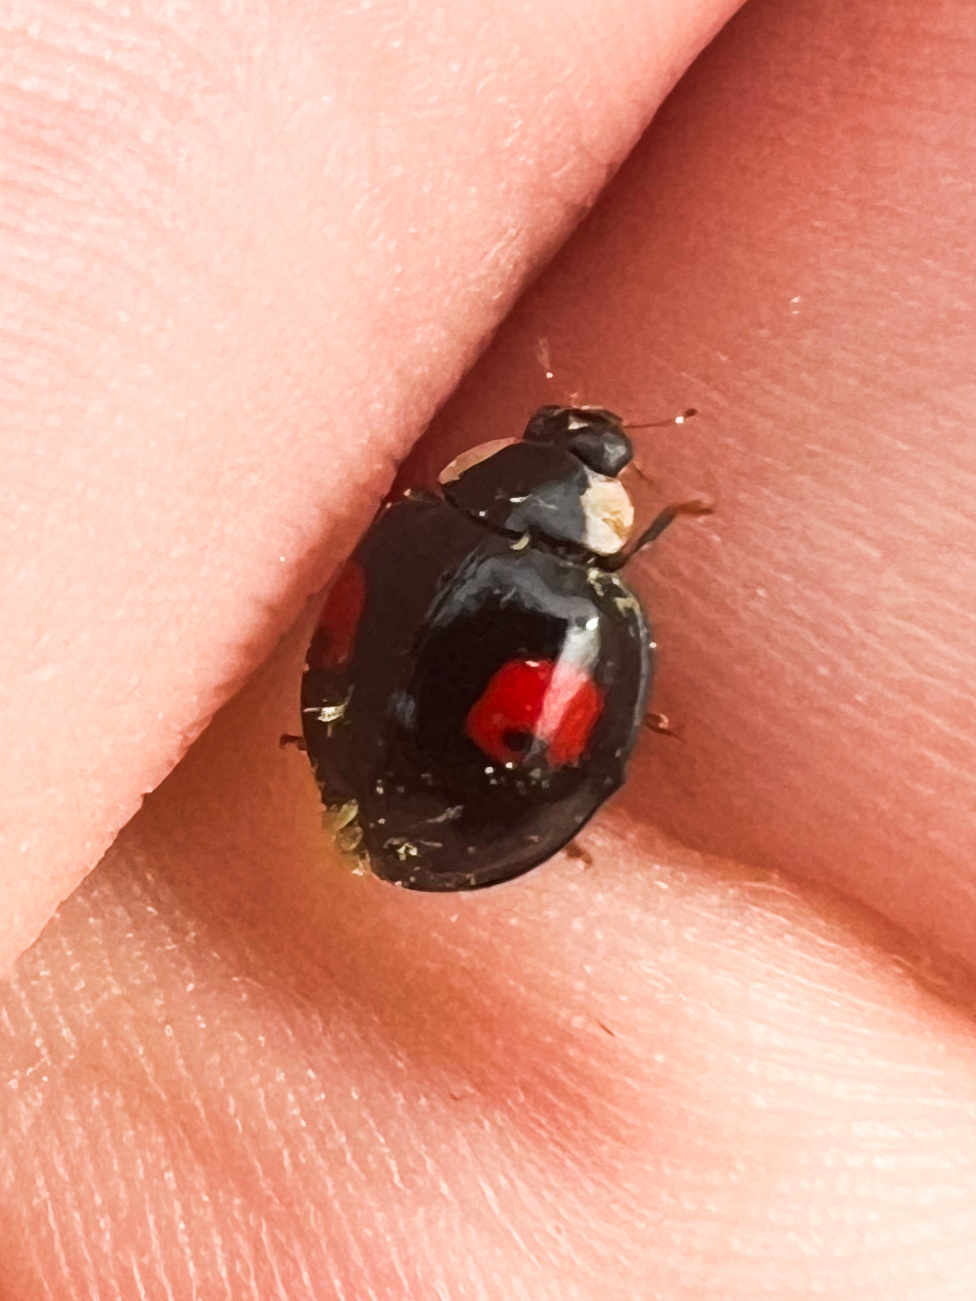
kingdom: Animalia
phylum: Arthropoda
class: Insecta
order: Coleoptera
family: Coccinellidae
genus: Harmonia
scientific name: Harmonia axyridis
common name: Harlequin ladybird
